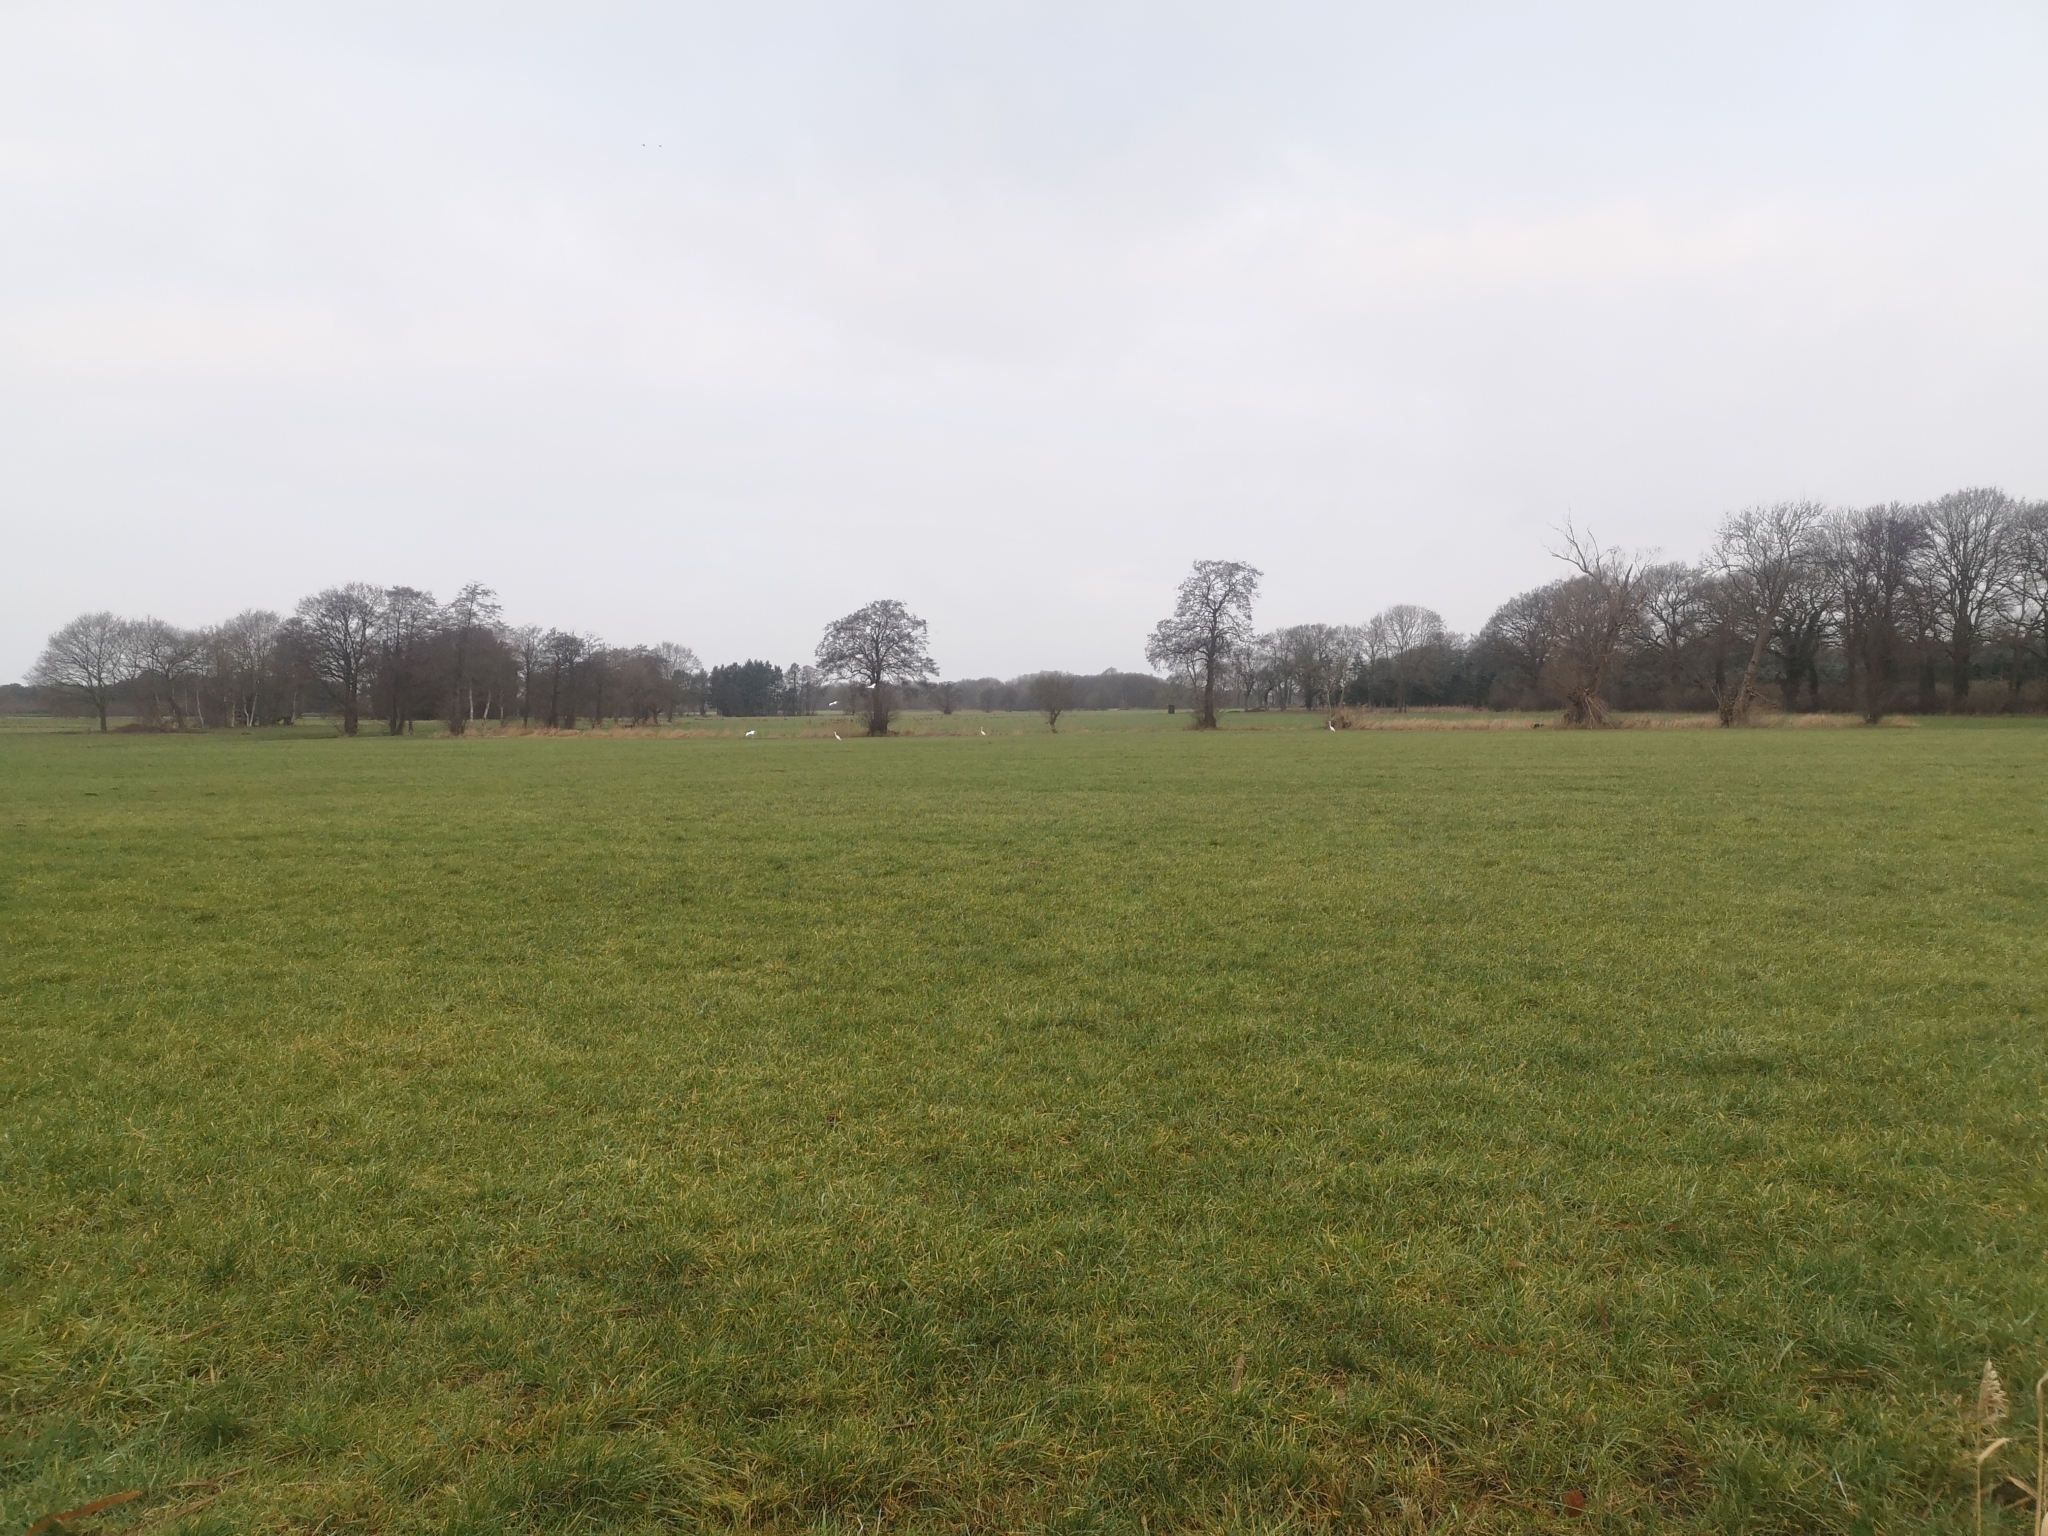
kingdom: Animalia
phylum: Chordata
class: Aves
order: Pelecaniformes
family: Ardeidae
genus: Ardea
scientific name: Ardea alba
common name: Great egret
